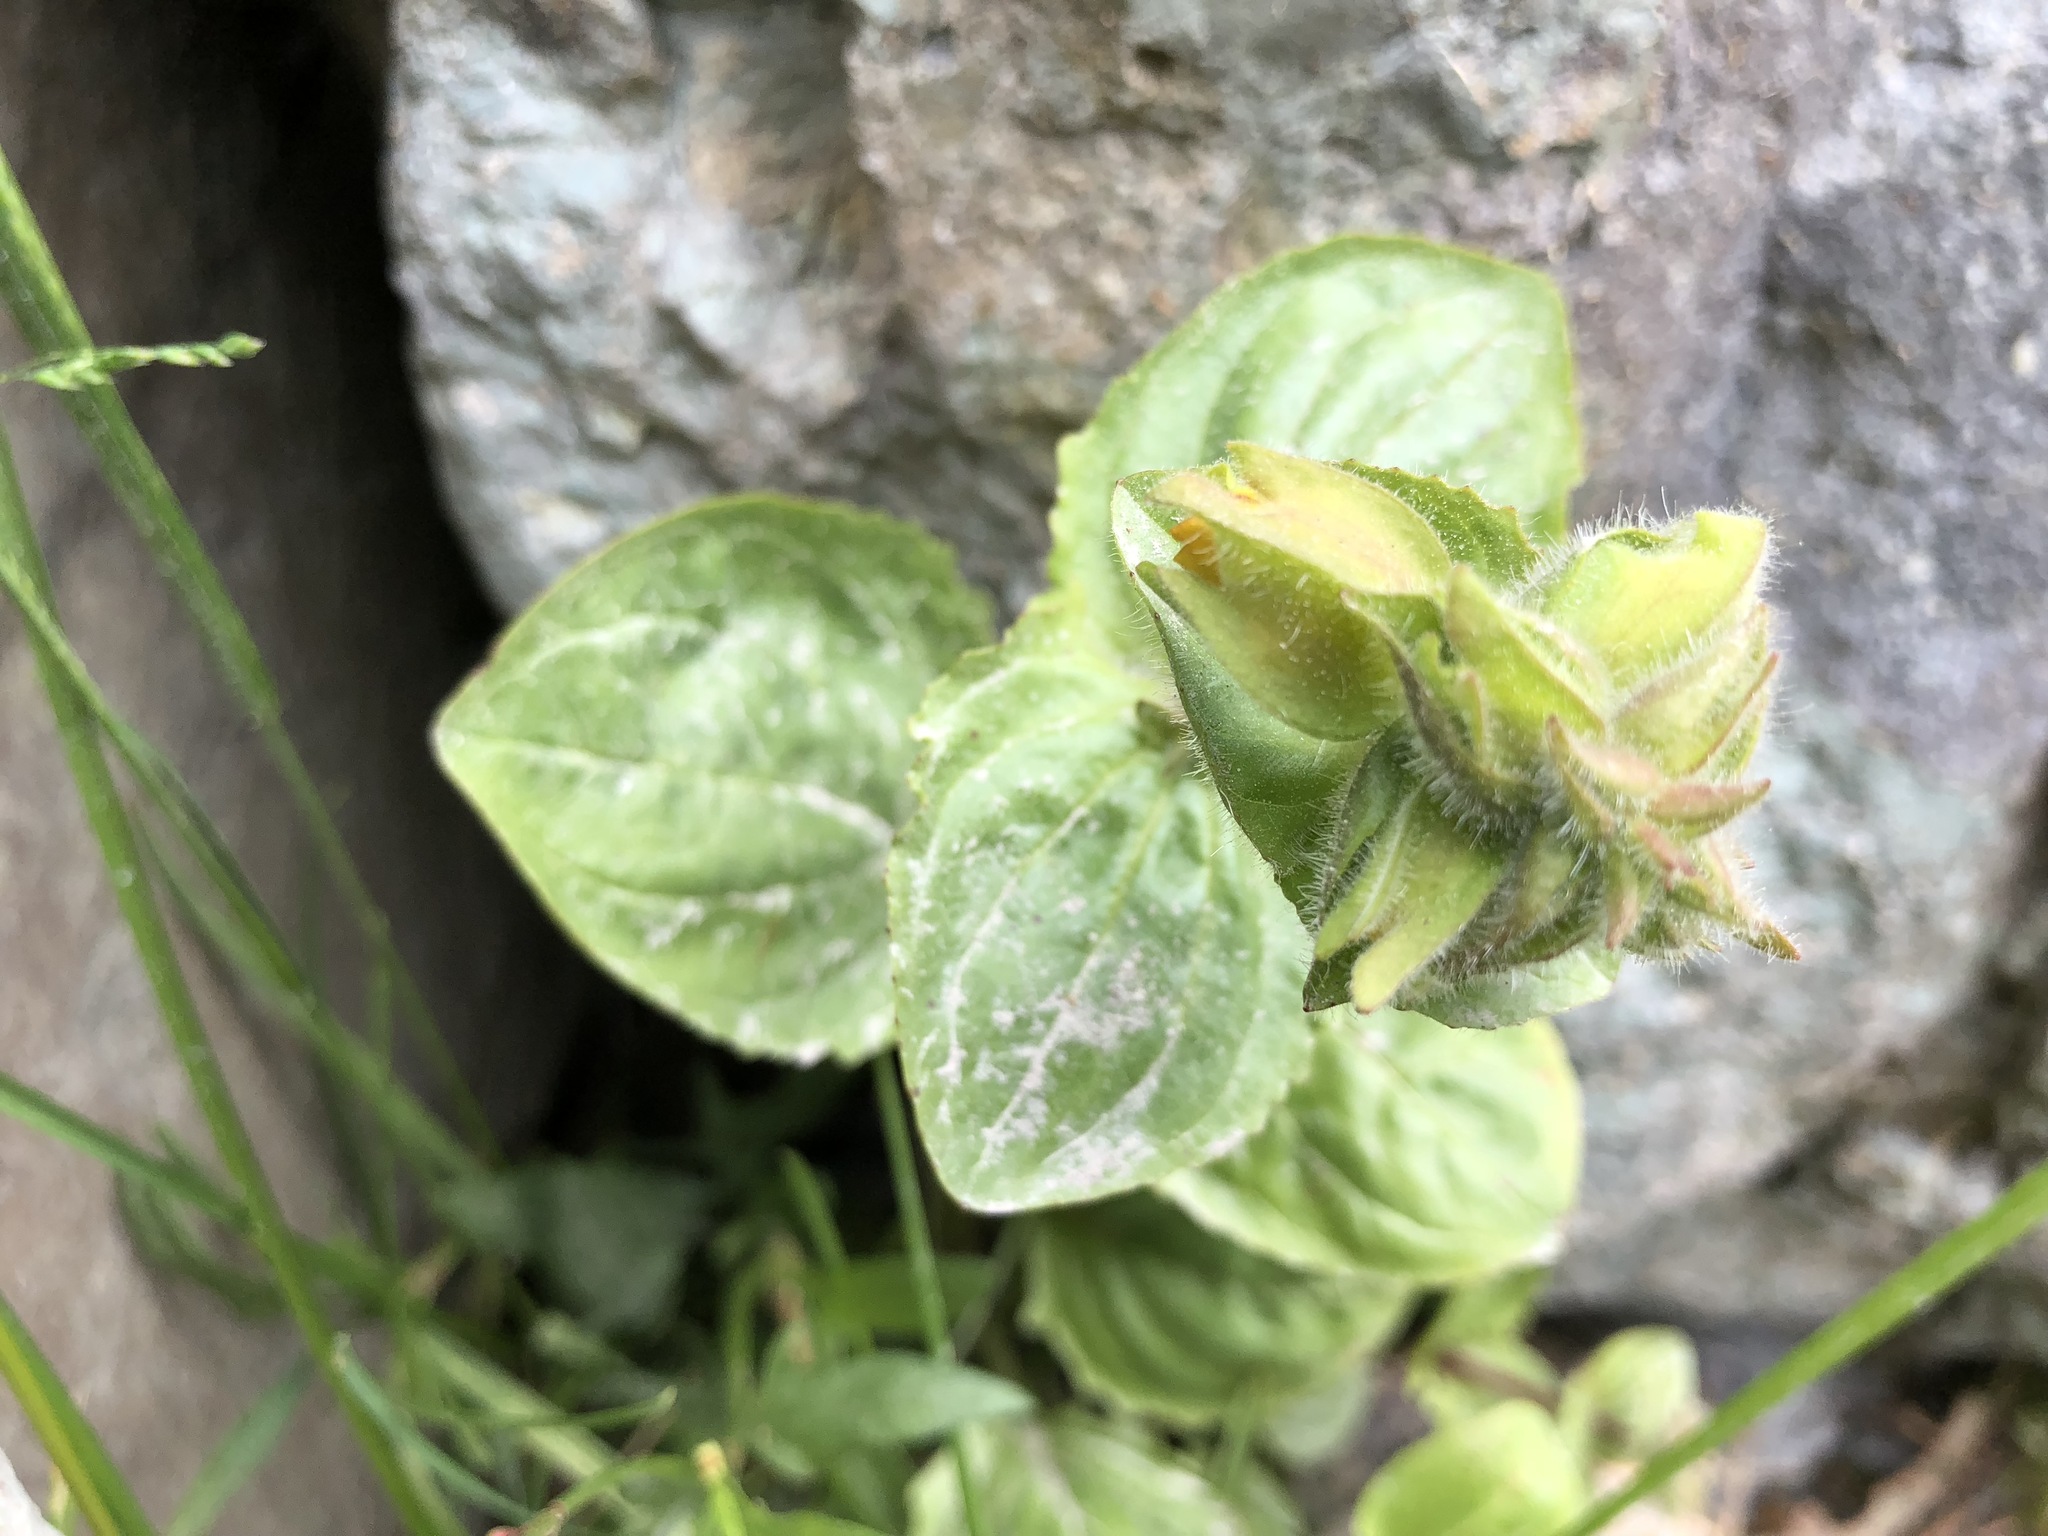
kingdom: Plantae
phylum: Tracheophyta
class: Magnoliopsida
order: Lamiales
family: Phrymaceae
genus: Erythranthe
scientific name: Erythranthe guttata
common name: Monkeyflower
